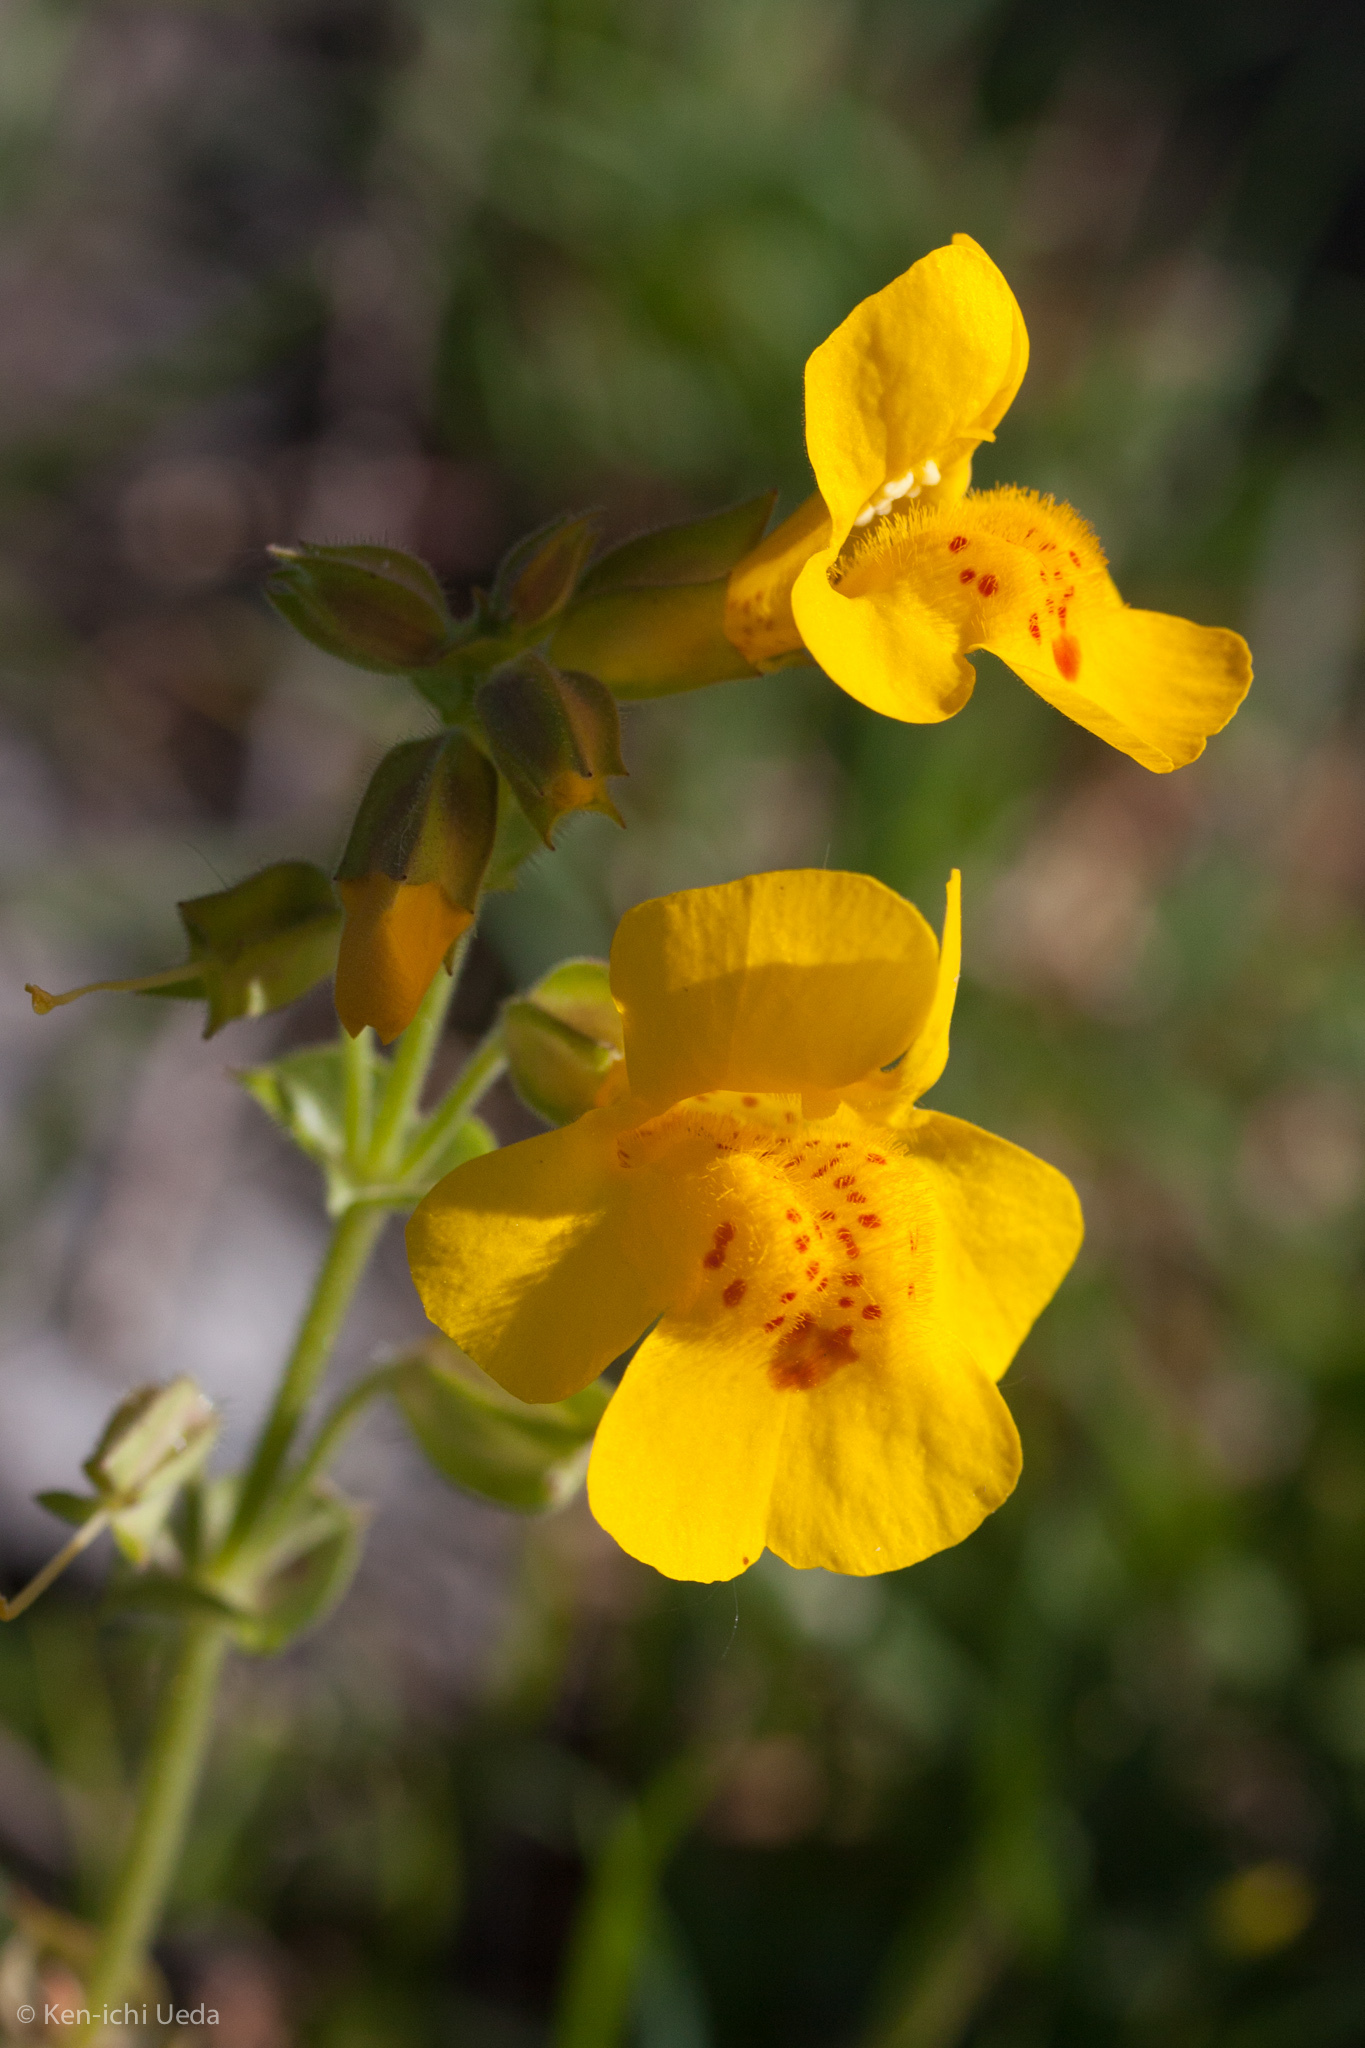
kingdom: Plantae
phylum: Tracheophyta
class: Magnoliopsida
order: Lamiales
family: Phrymaceae
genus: Erythranthe
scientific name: Erythranthe guttata
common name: Monkeyflower
